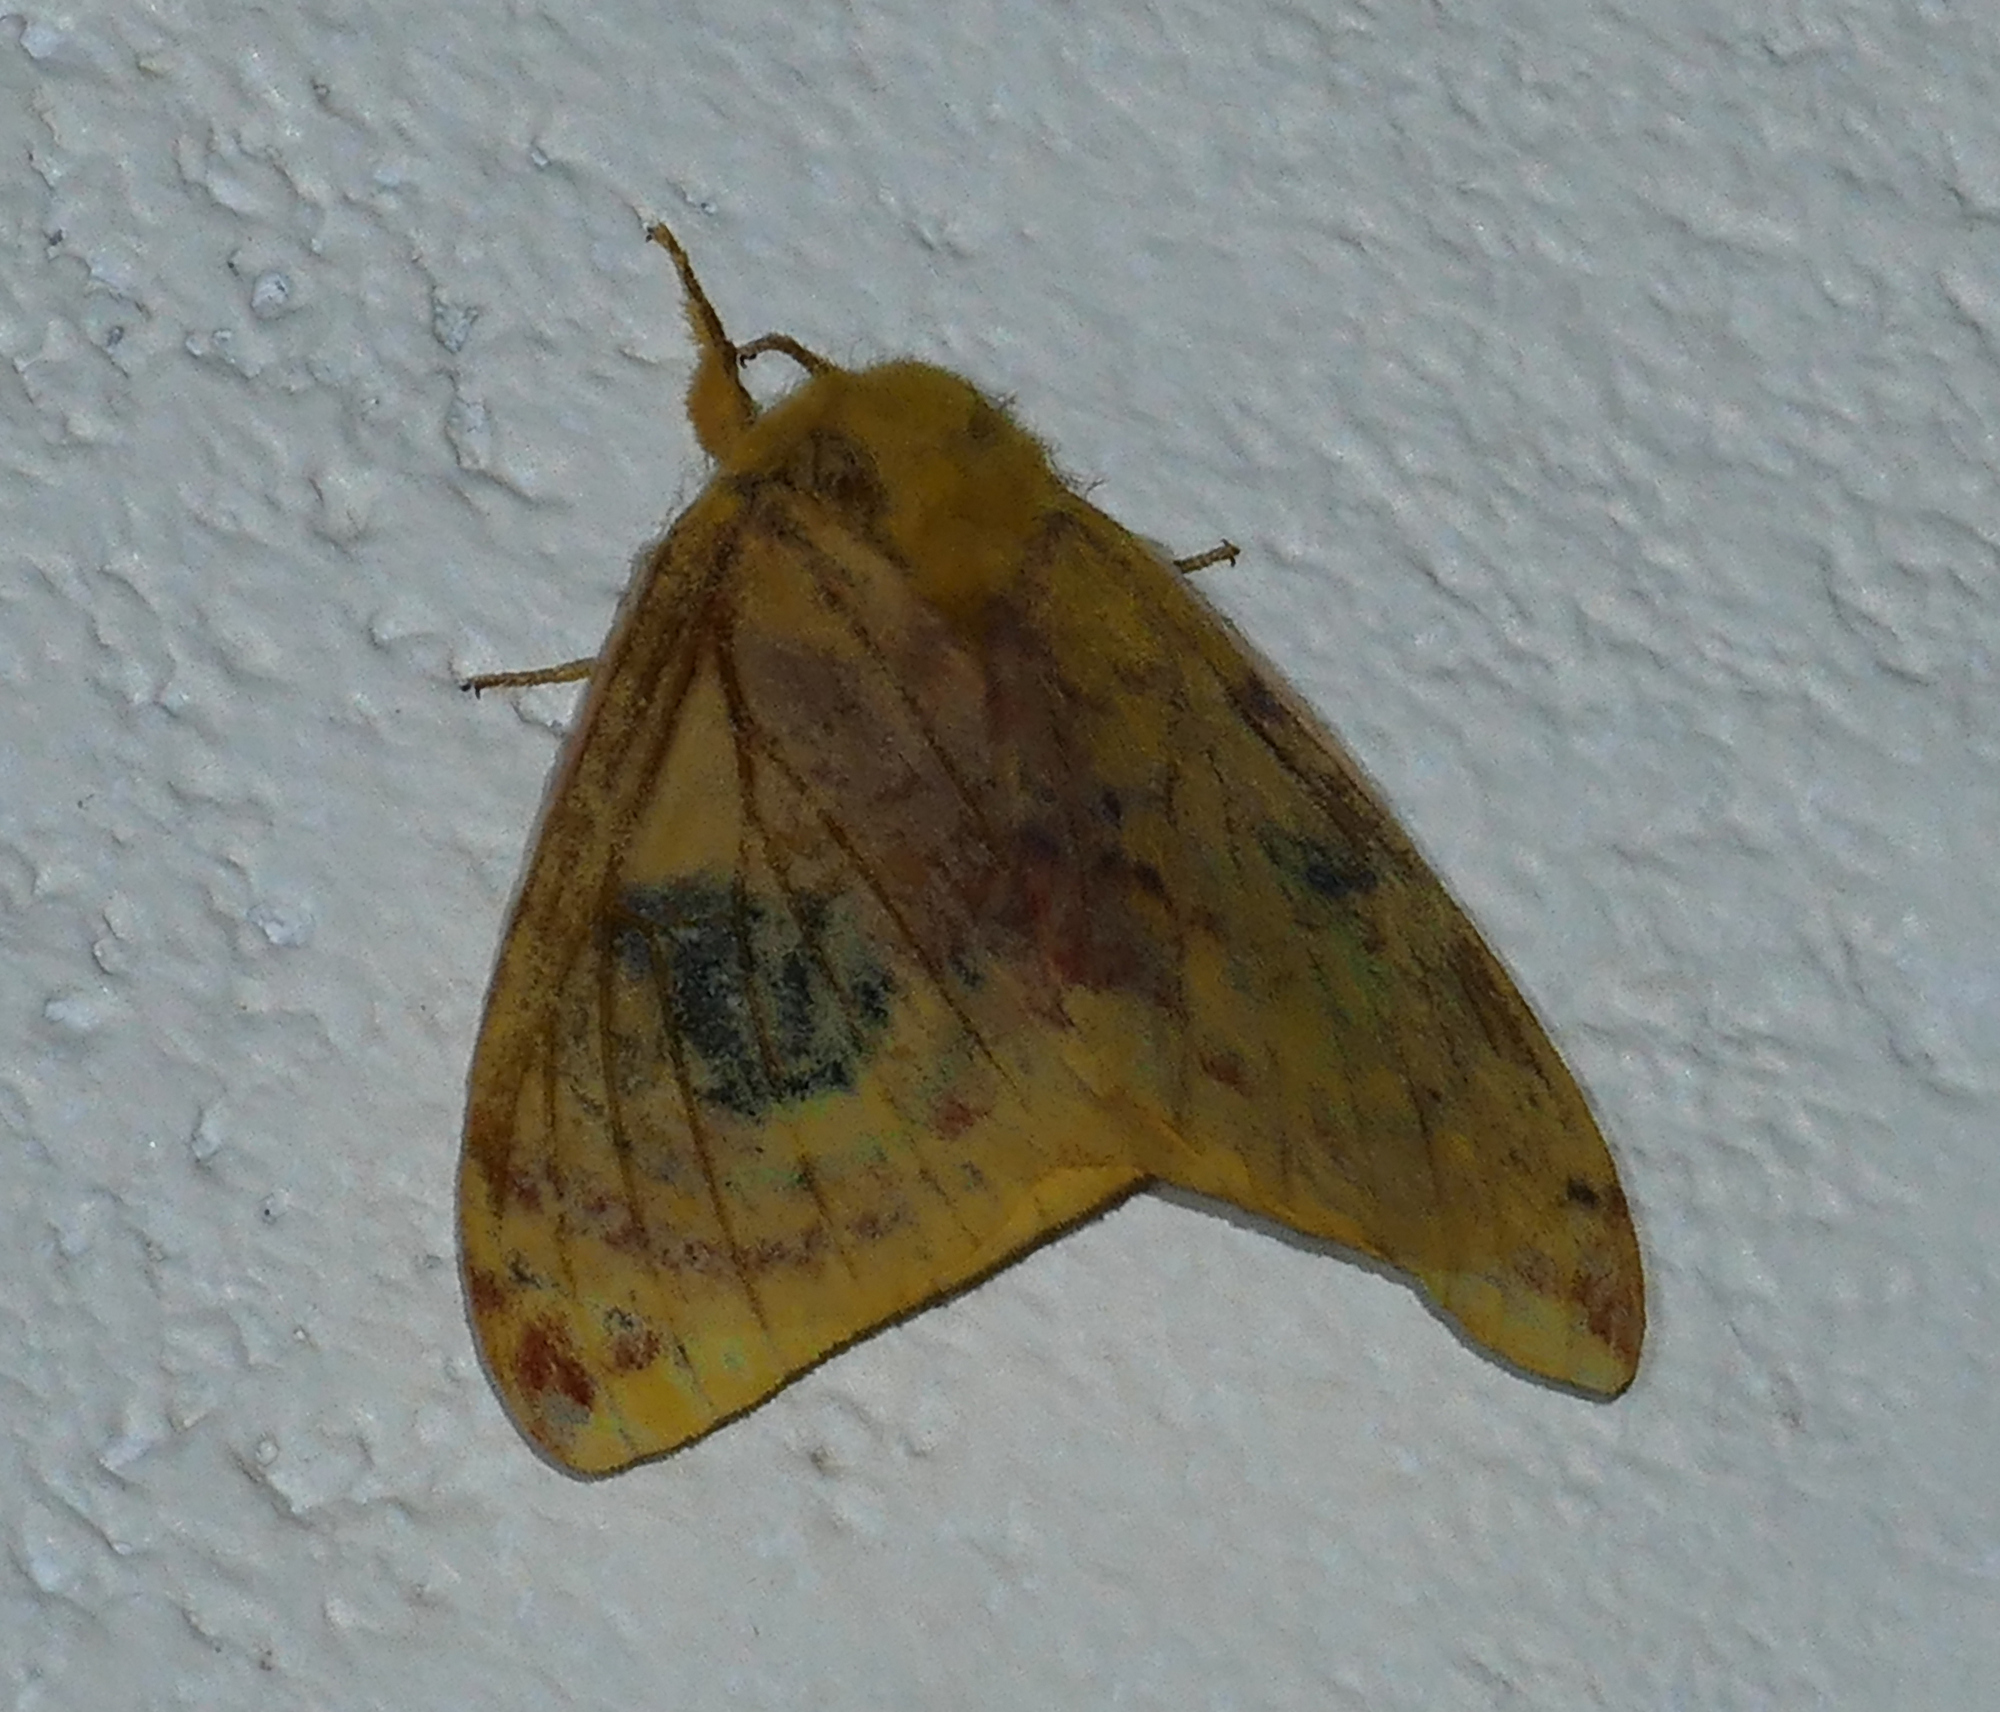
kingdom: Animalia
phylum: Arthropoda
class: Insecta
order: Lepidoptera
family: Saturniidae
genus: Automeris
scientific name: Automeris io
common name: Io moth
